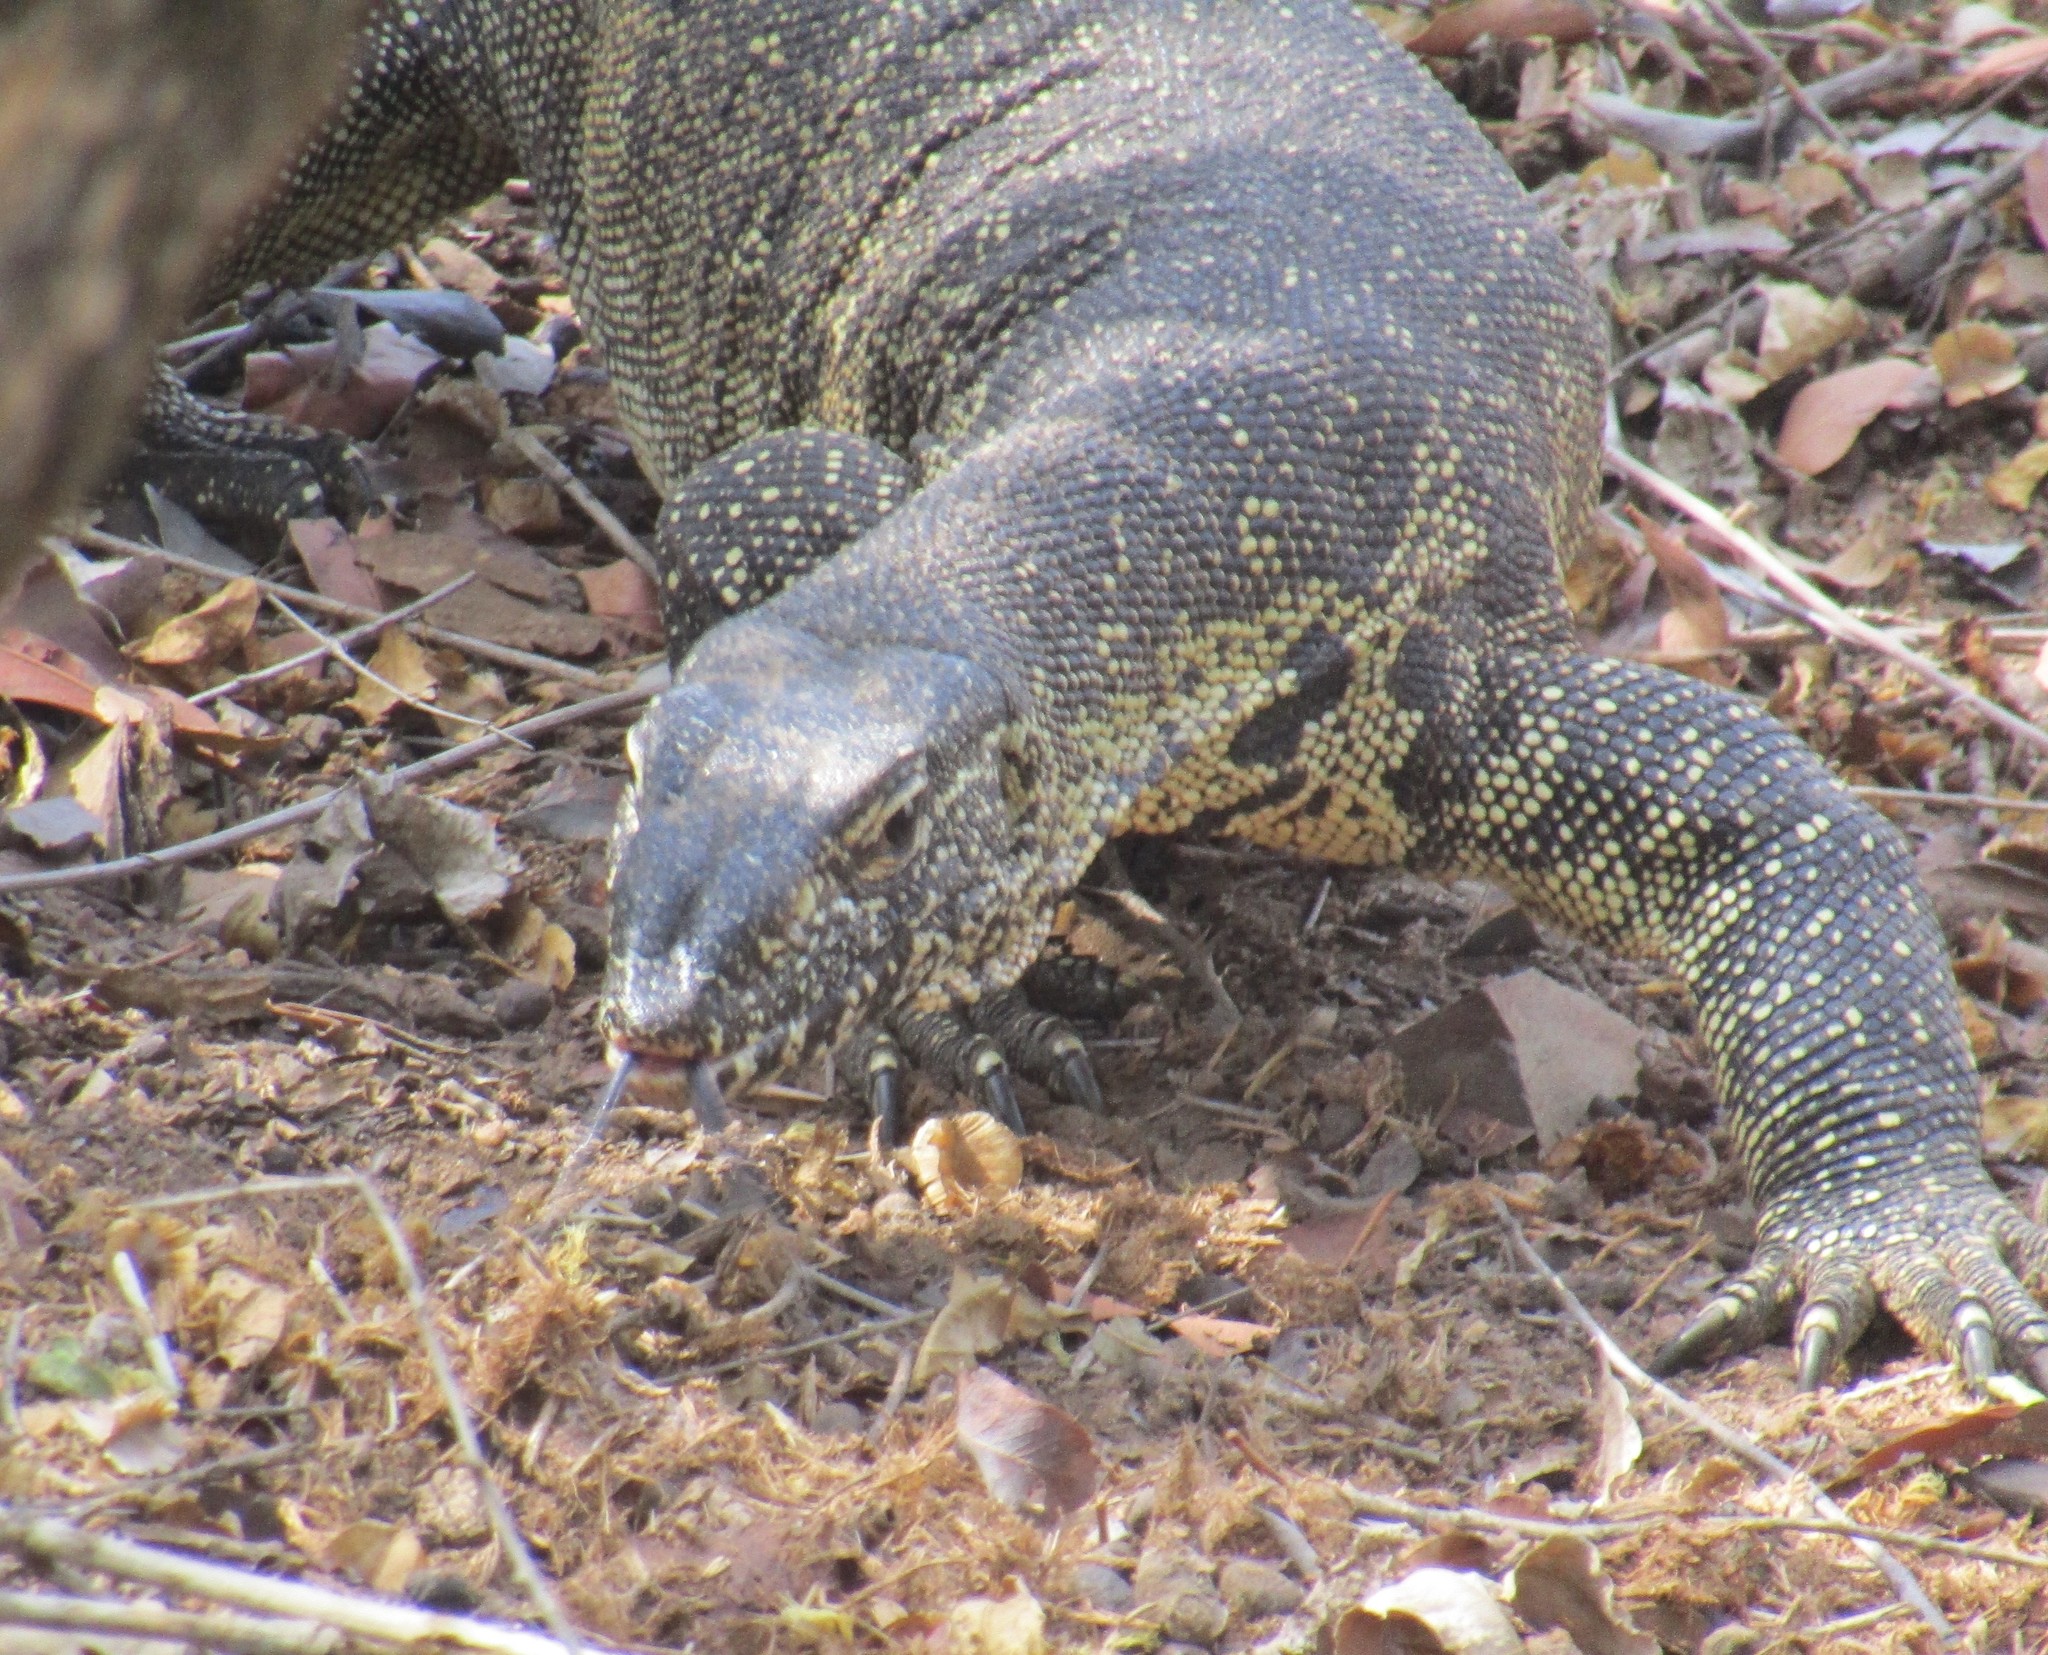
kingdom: Animalia
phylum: Chordata
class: Squamata
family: Varanidae
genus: Varanus
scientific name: Varanus niloticus
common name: Nile monitor
